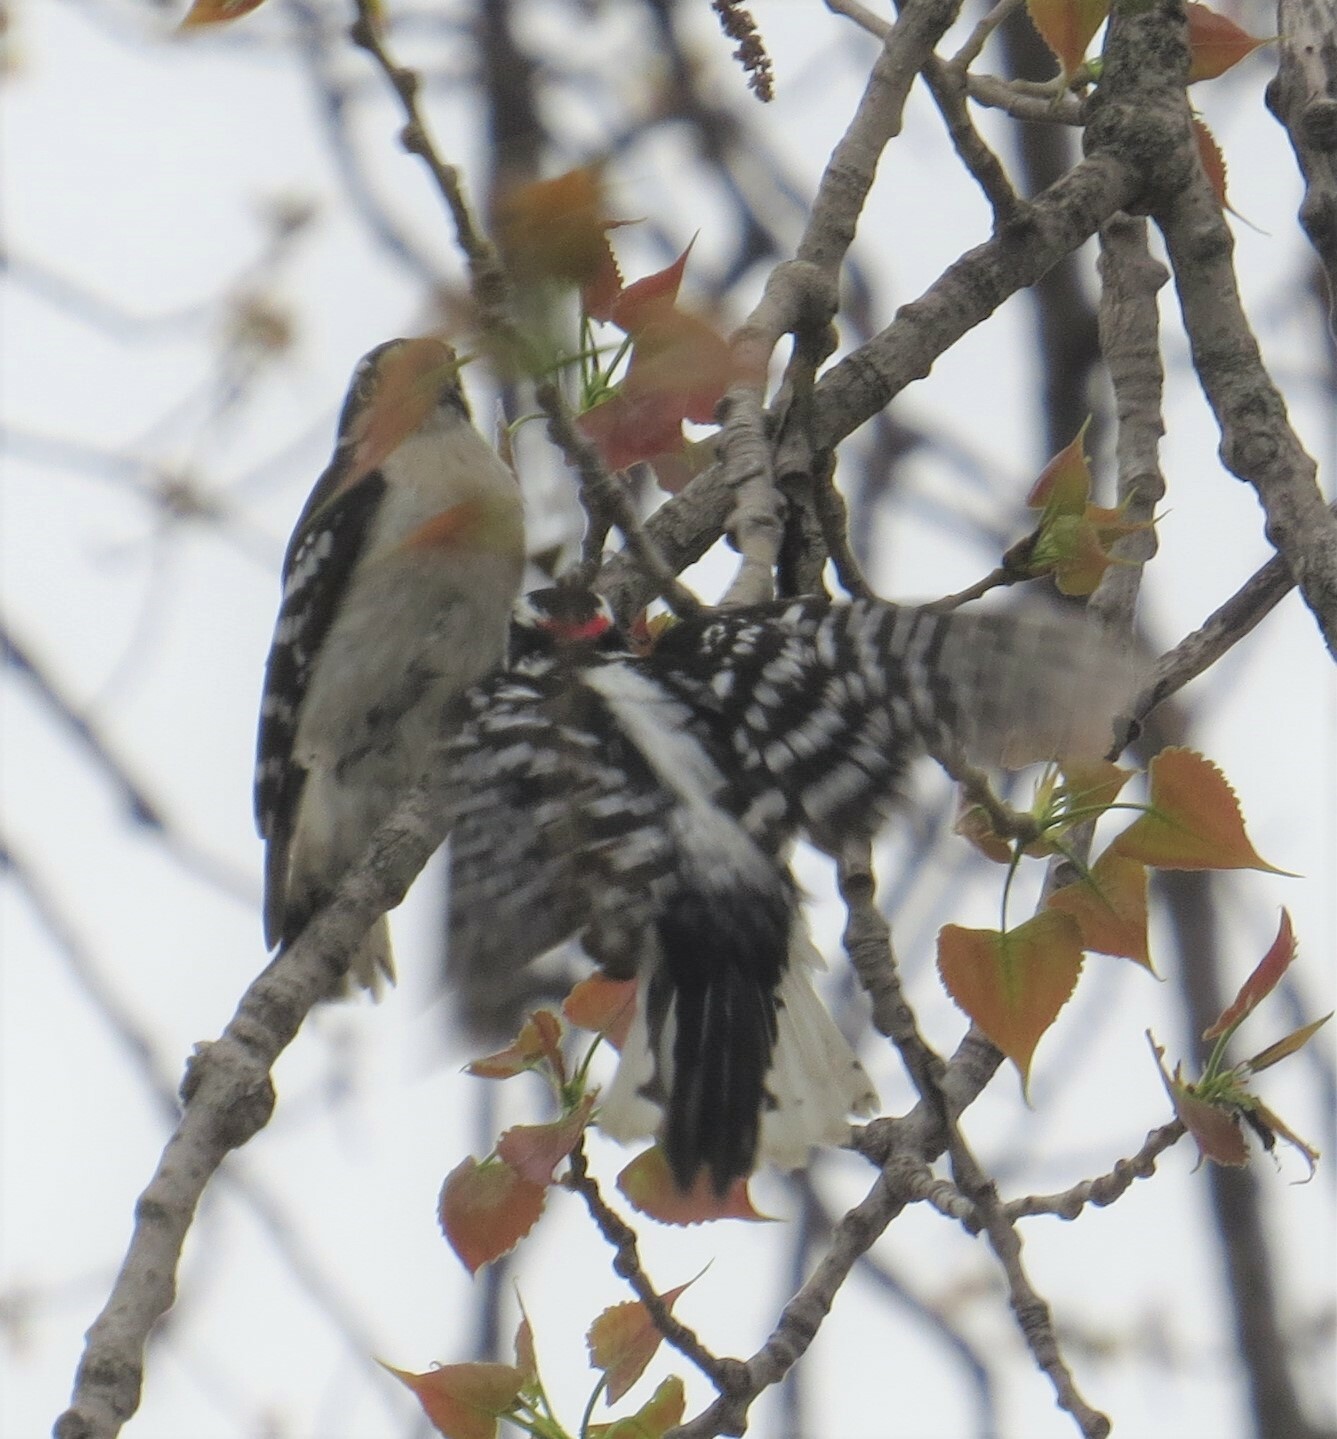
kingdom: Animalia
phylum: Chordata
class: Aves
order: Piciformes
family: Picidae
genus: Dryobates
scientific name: Dryobates pubescens
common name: Downy woodpecker
